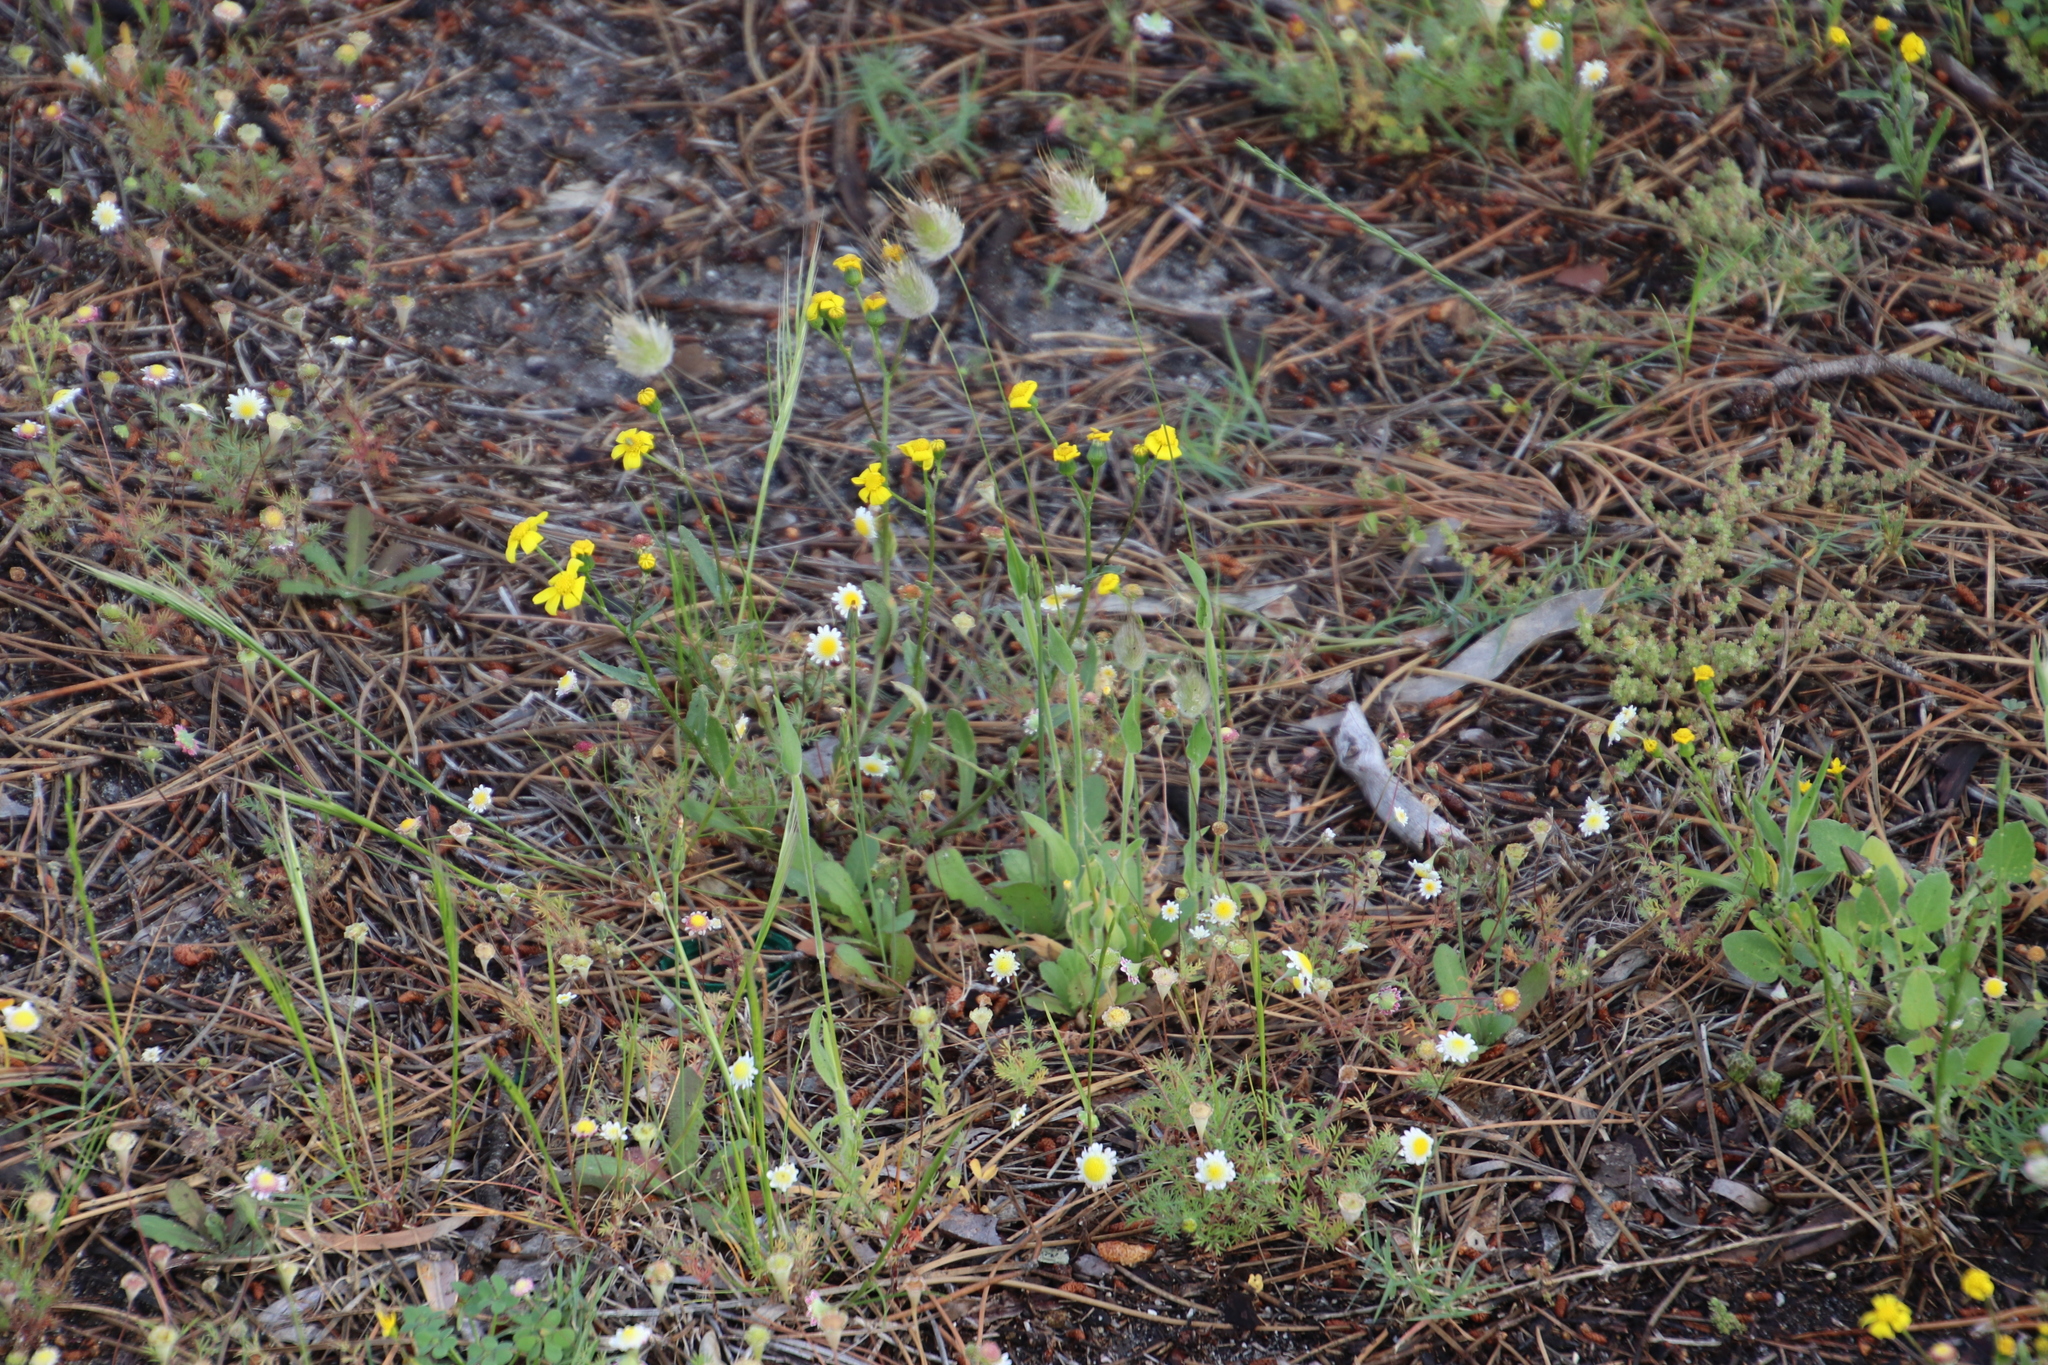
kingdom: Plantae
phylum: Tracheophyta
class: Liliopsida
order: Poales
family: Poaceae
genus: Lagurus
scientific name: Lagurus ovatus
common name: Hare's-tail
